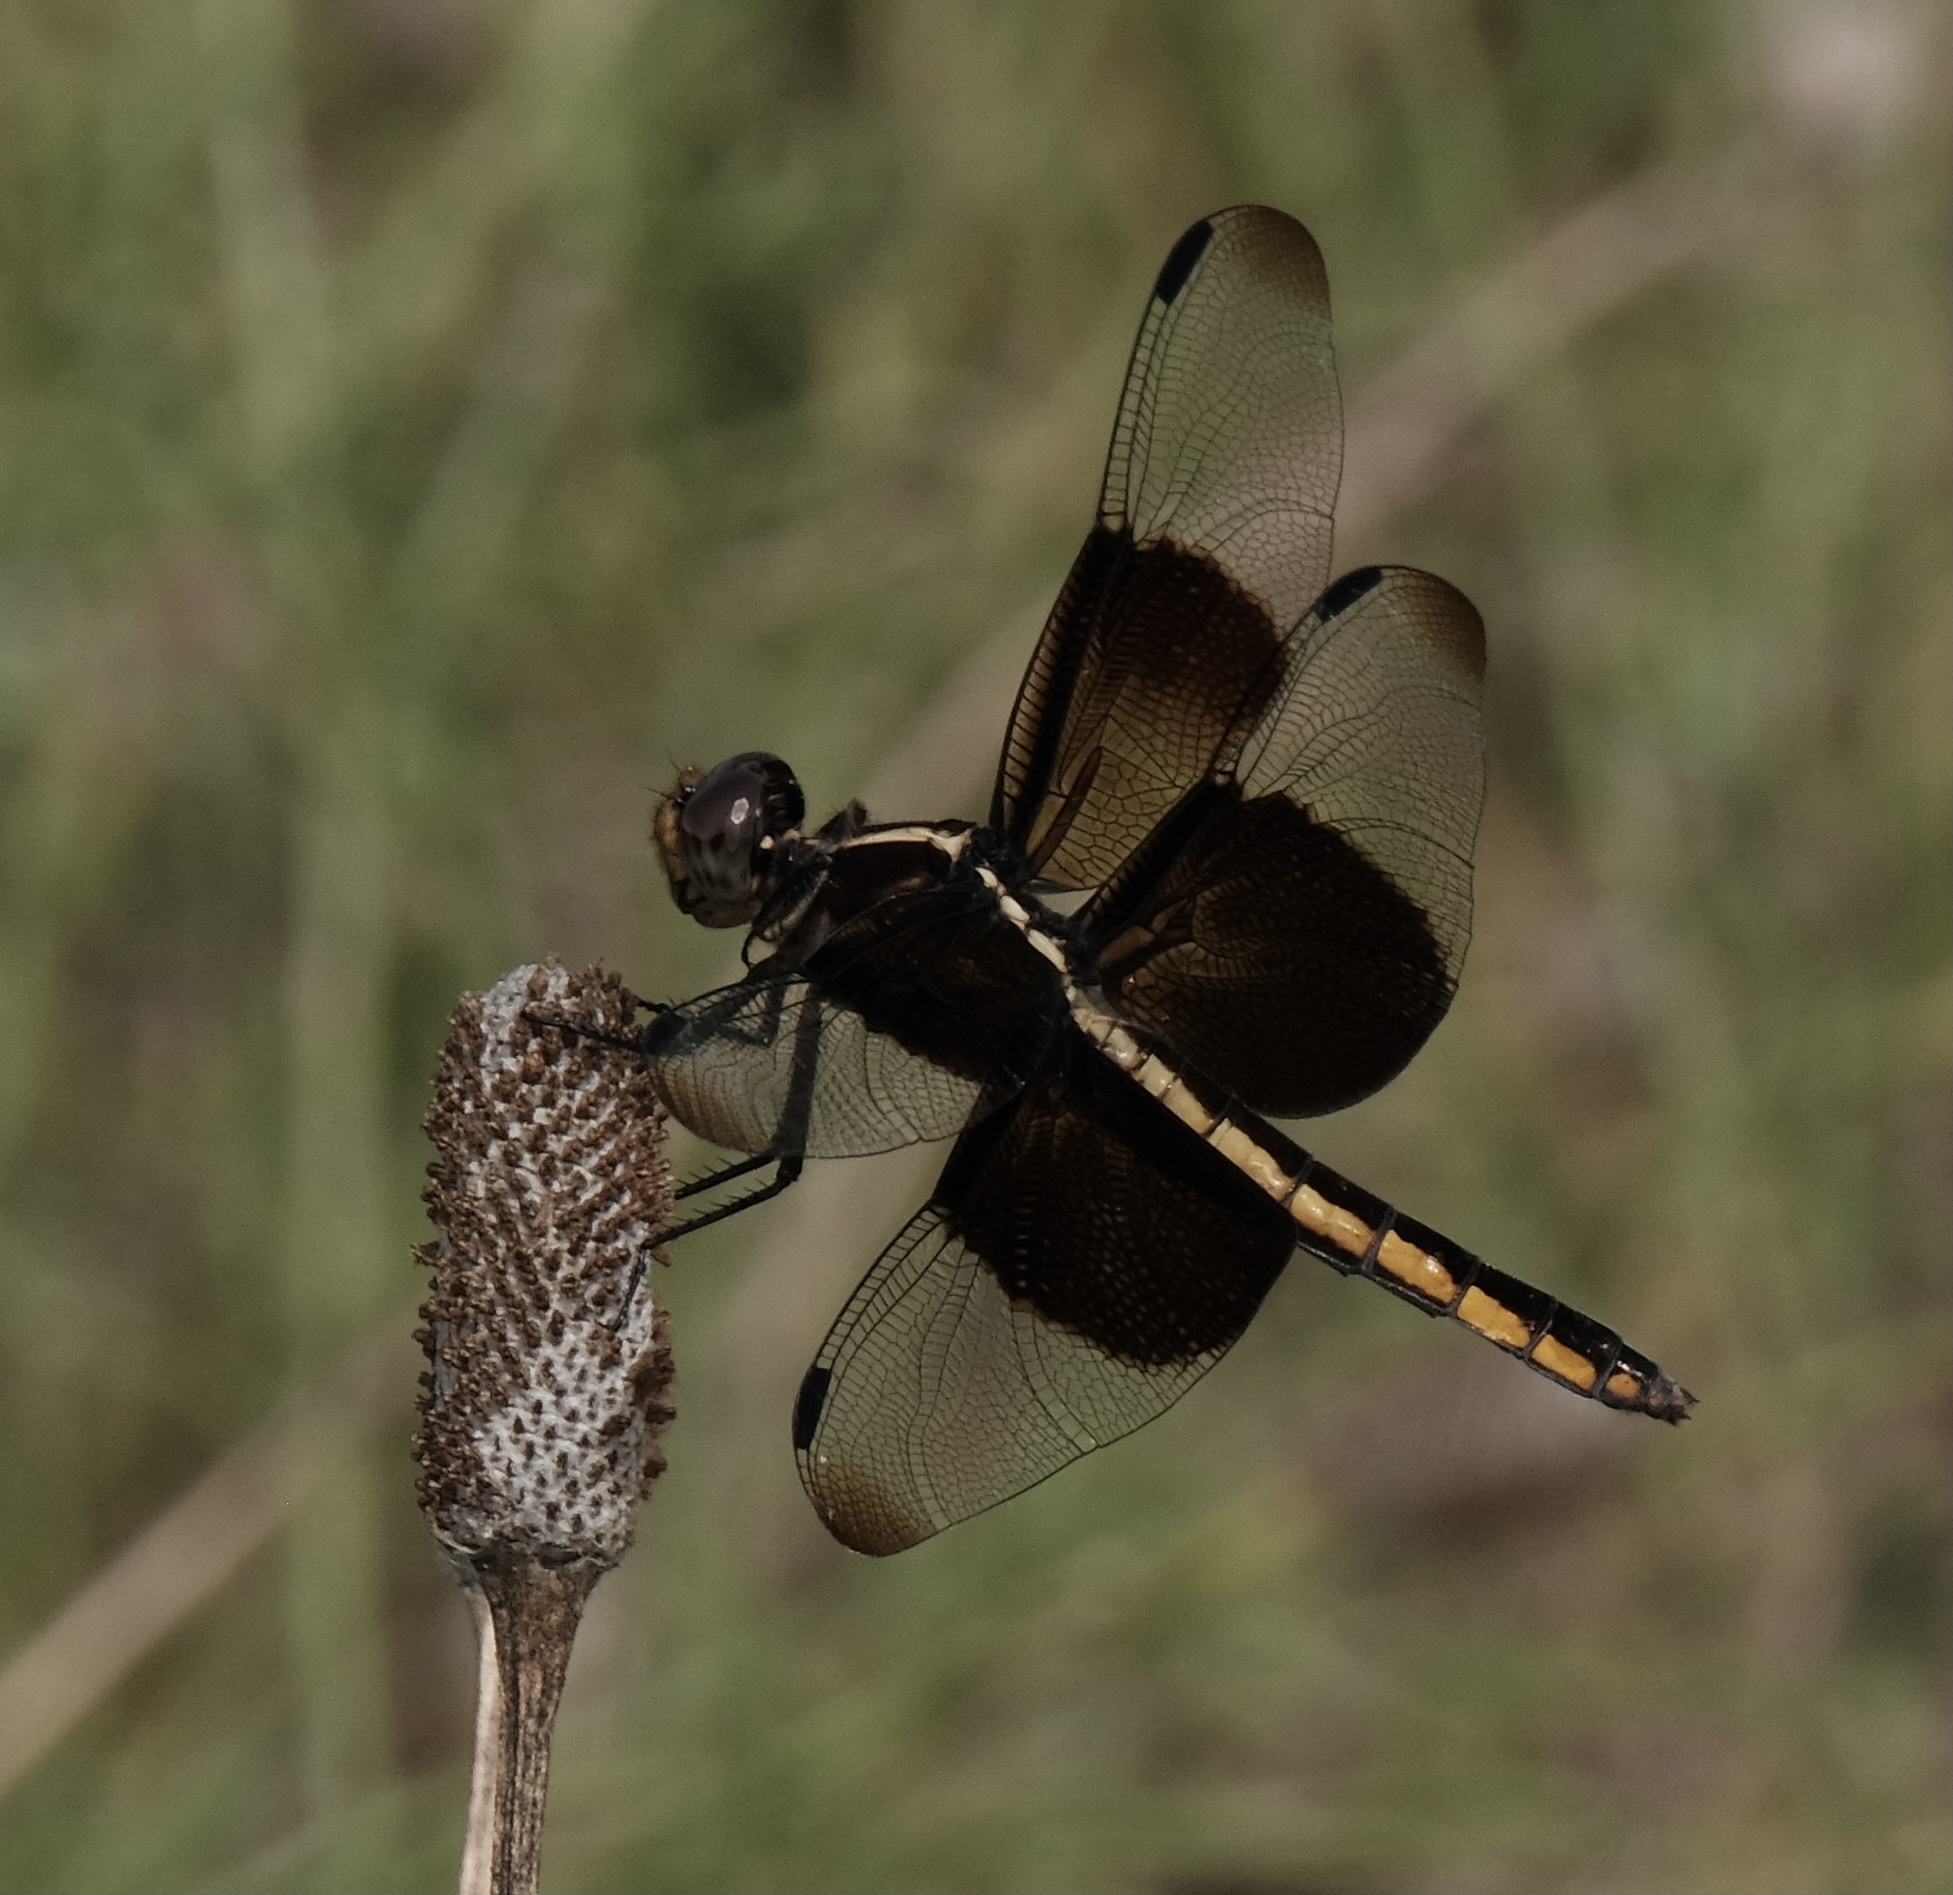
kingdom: Animalia
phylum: Arthropoda
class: Insecta
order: Odonata
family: Libellulidae
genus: Libellula
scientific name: Libellula luctuosa
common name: Widow skimmer
